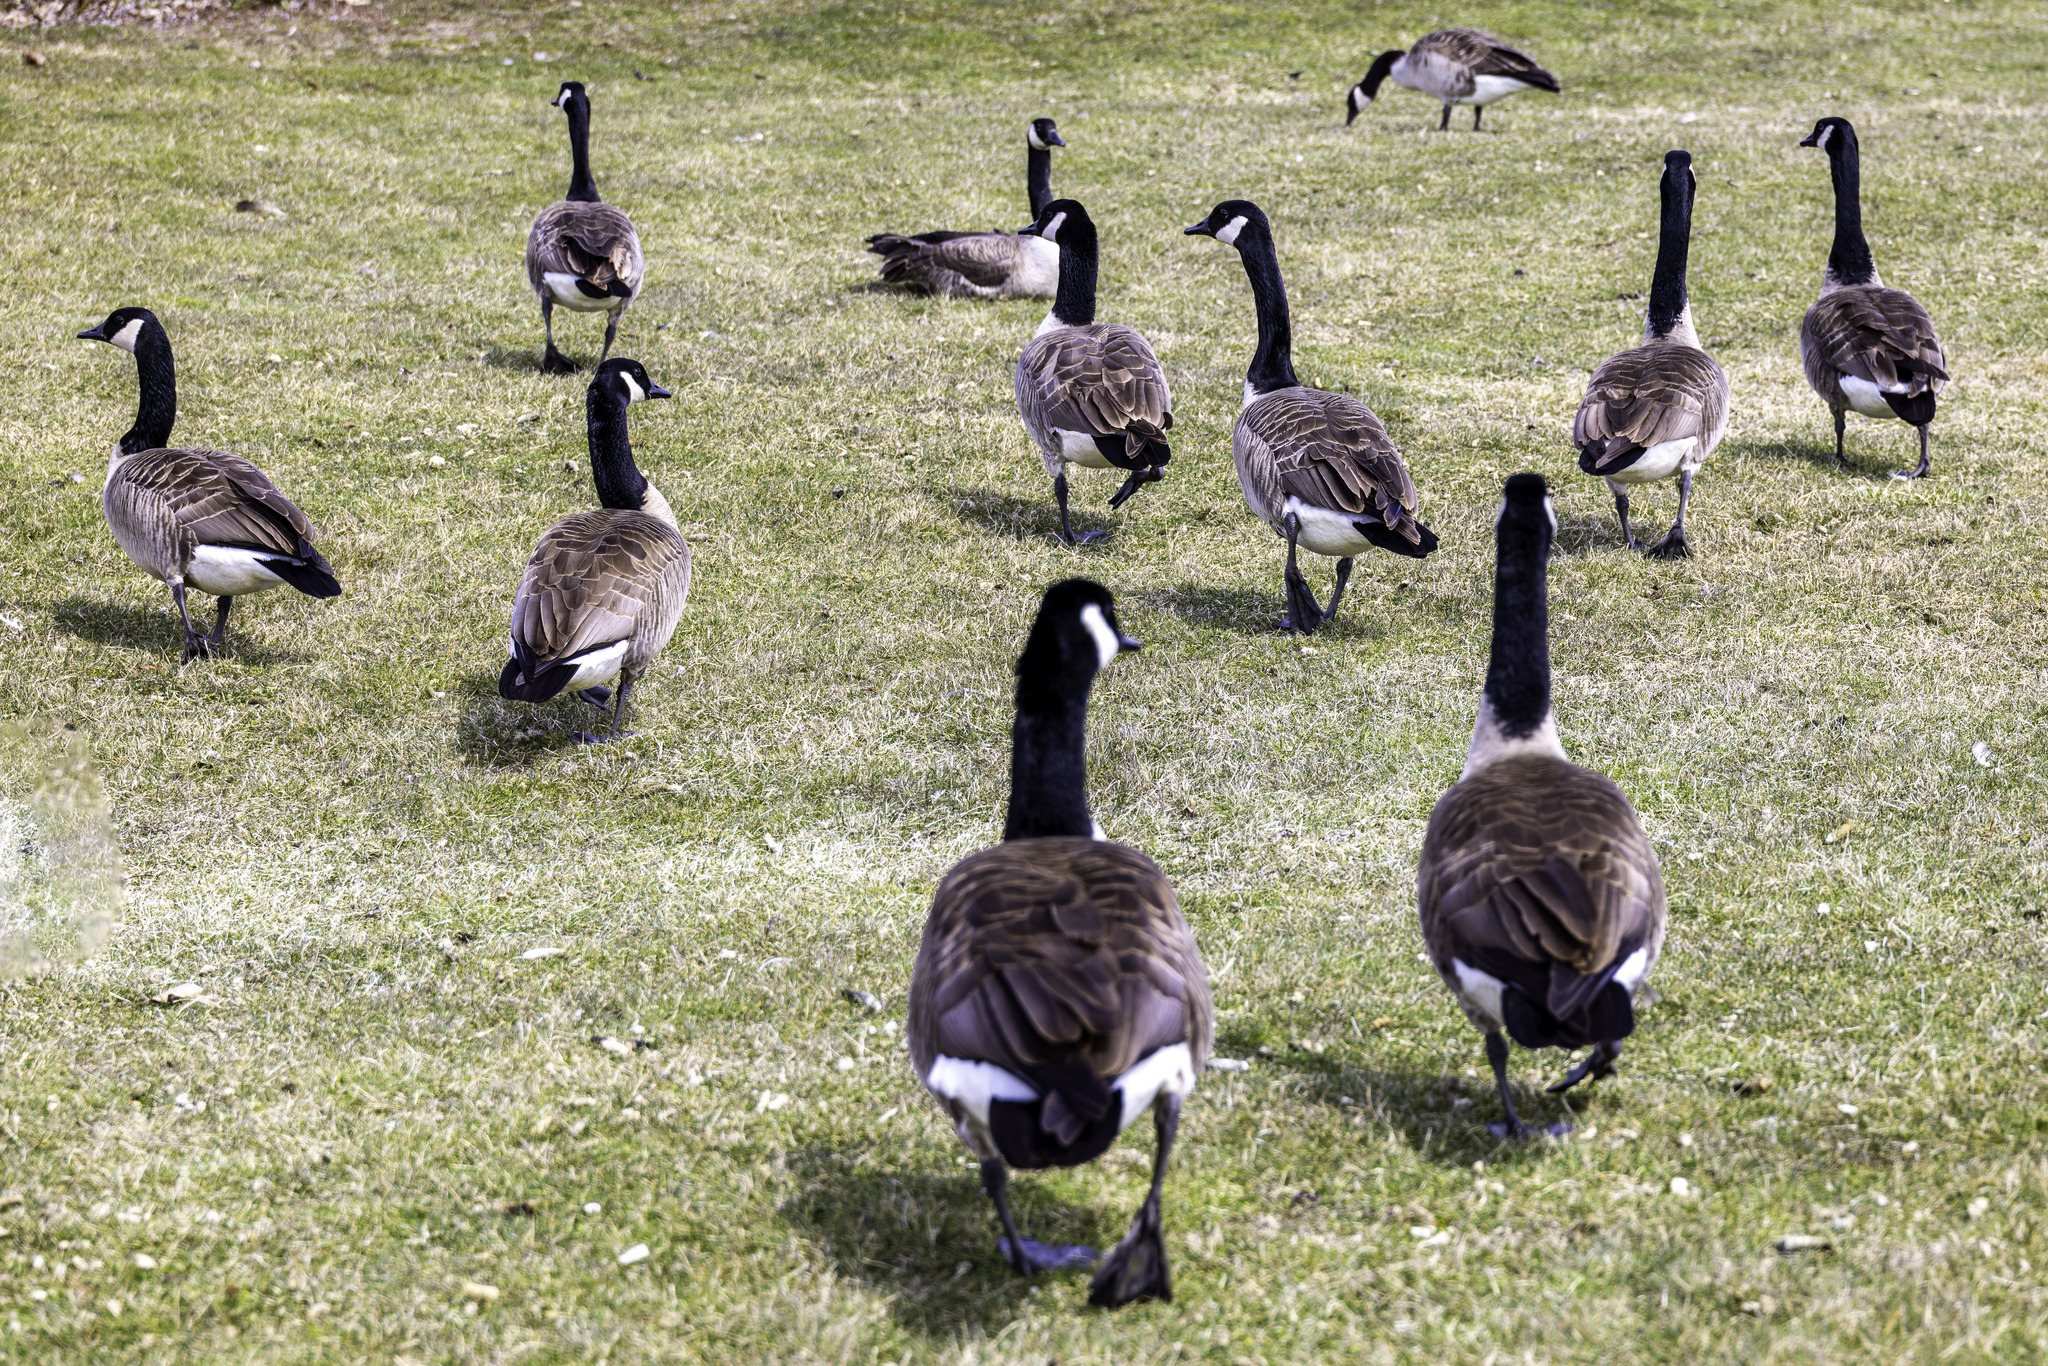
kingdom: Animalia
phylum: Chordata
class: Aves
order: Anseriformes
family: Anatidae
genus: Branta
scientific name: Branta canadensis
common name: Canada goose
